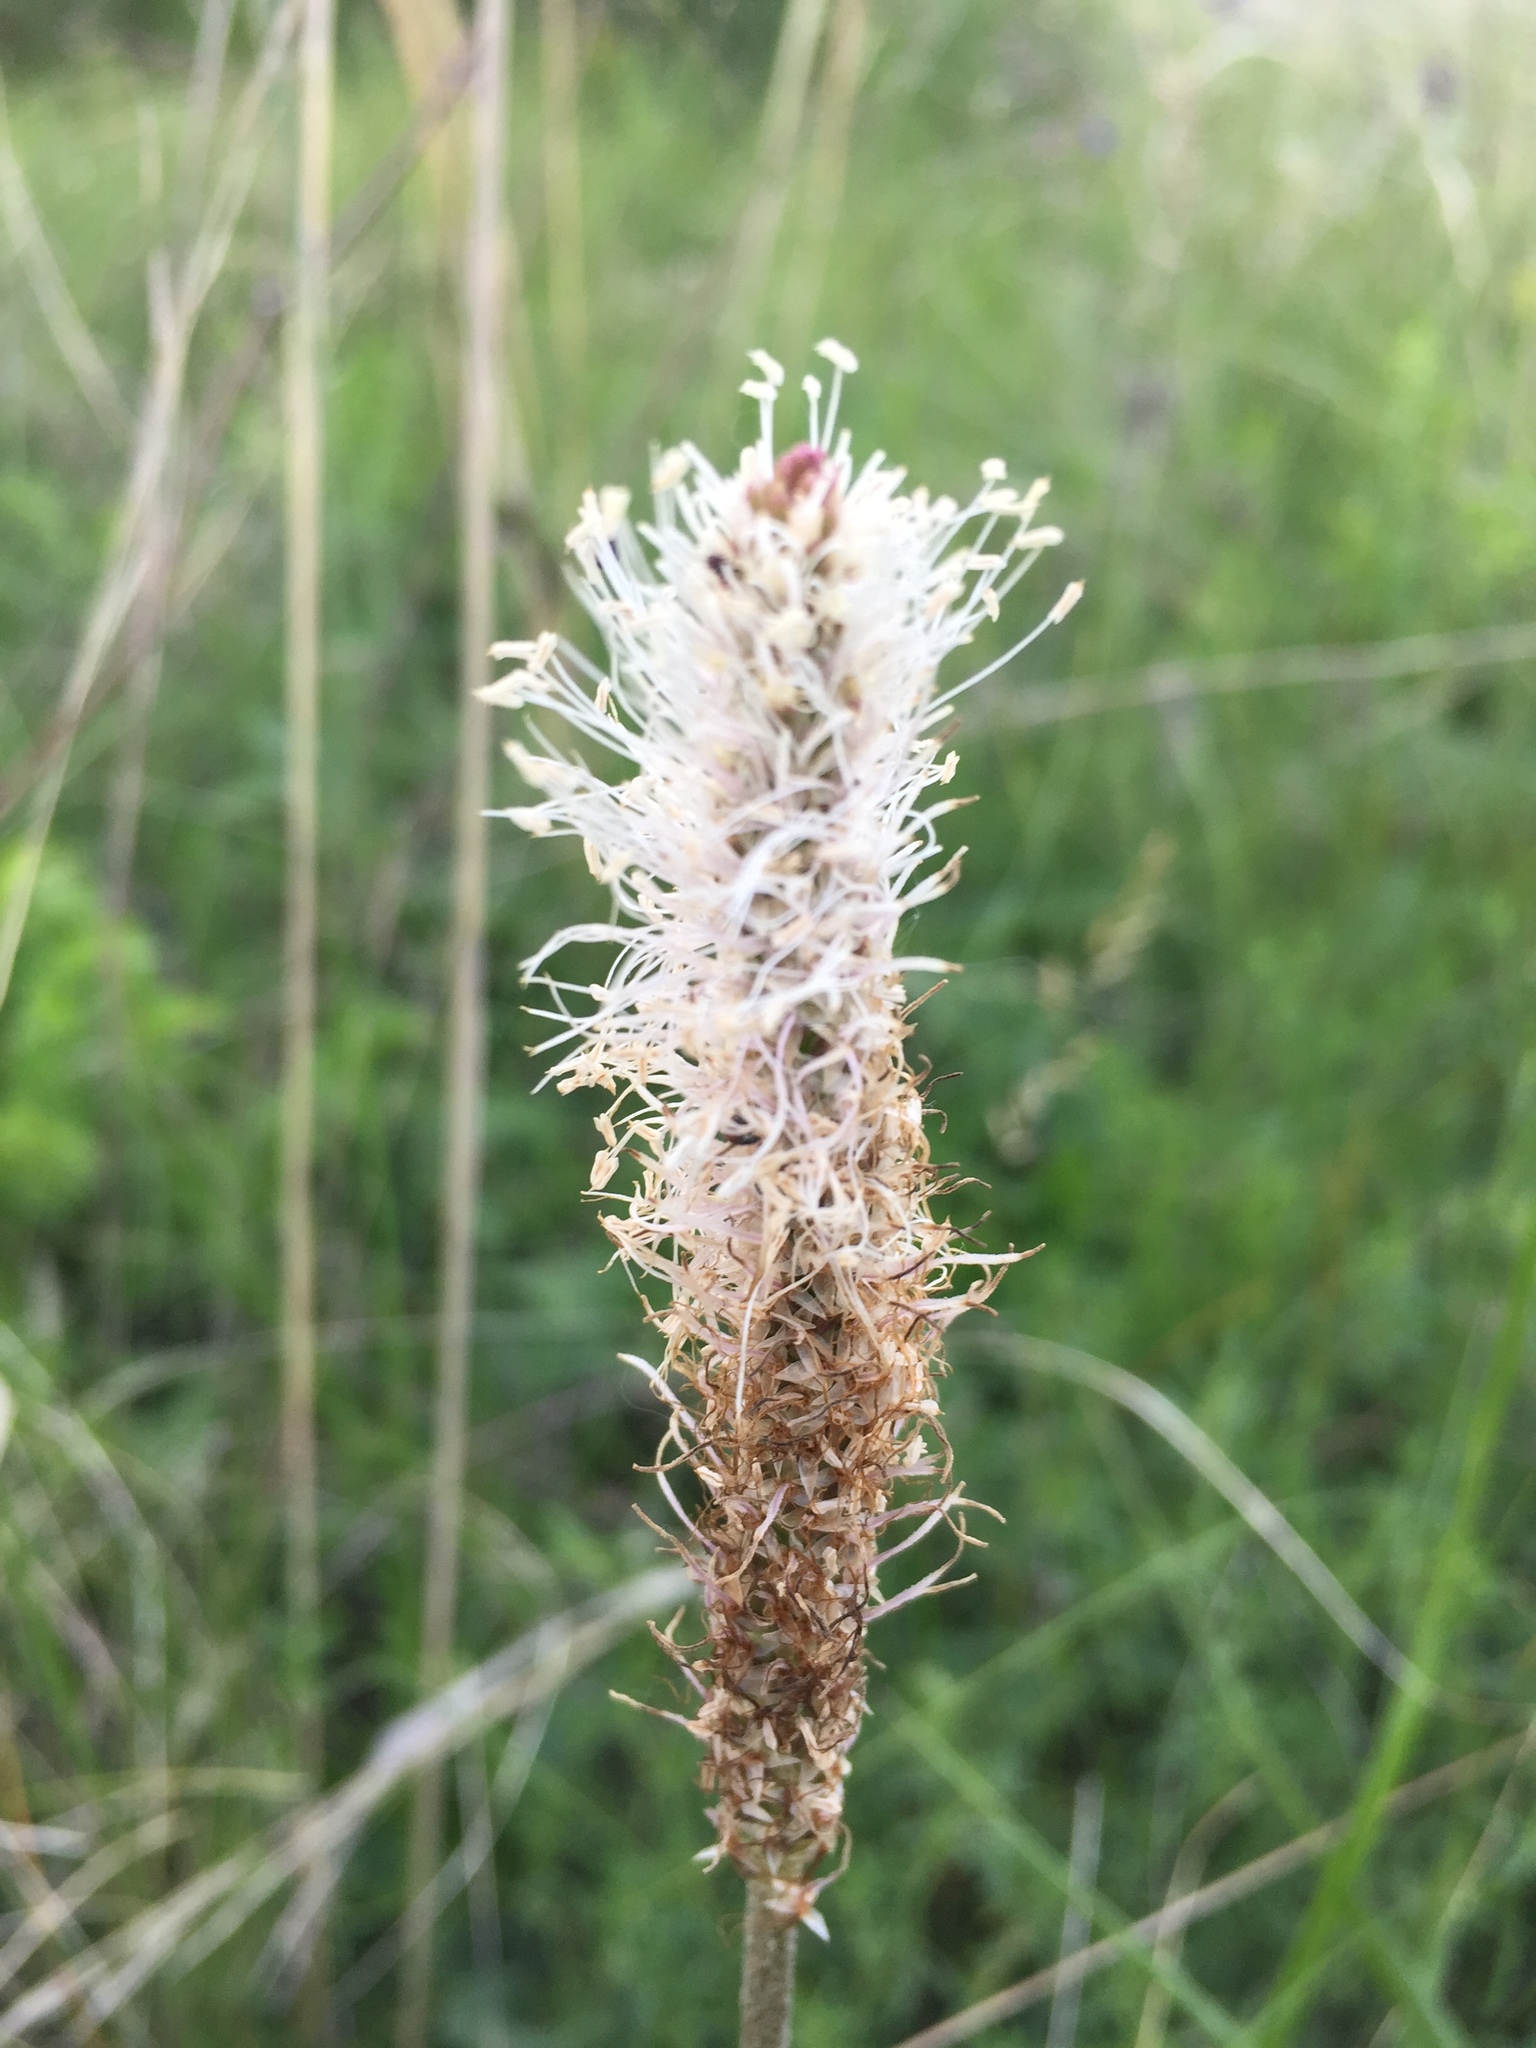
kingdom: Plantae
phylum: Tracheophyta
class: Magnoliopsida
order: Lamiales
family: Plantaginaceae
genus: Plantago
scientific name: Plantago urvillei
